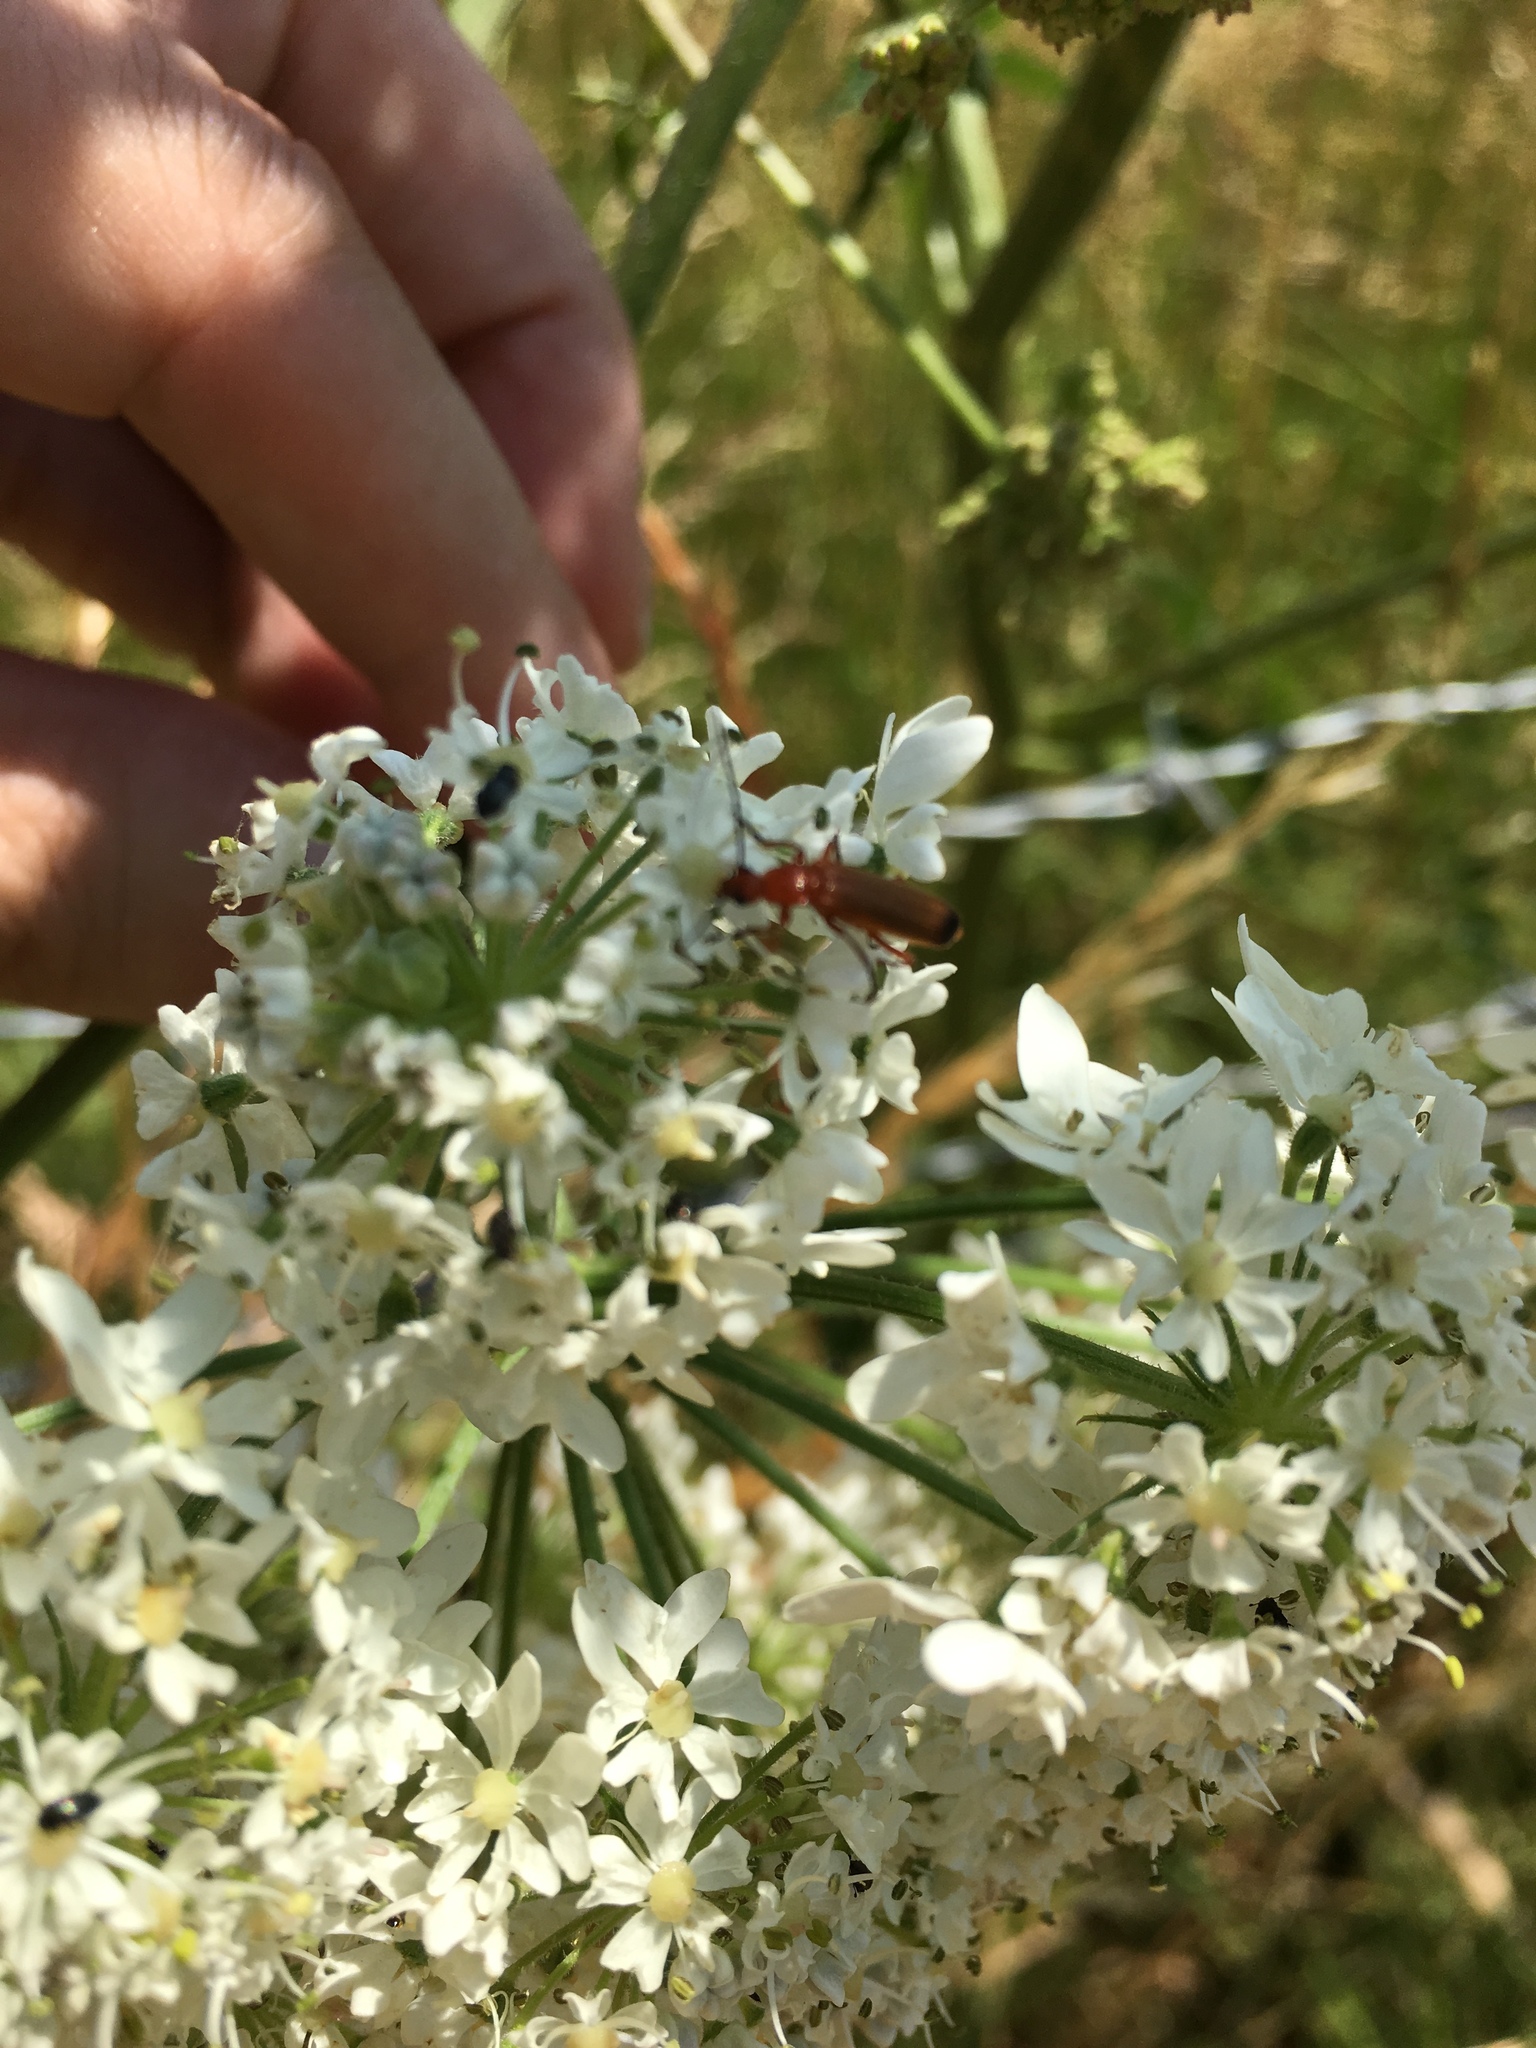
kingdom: Animalia
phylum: Arthropoda
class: Insecta
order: Coleoptera
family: Cantharidae
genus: Rhagonycha
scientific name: Rhagonycha fulva
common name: Common red soldier beetle
